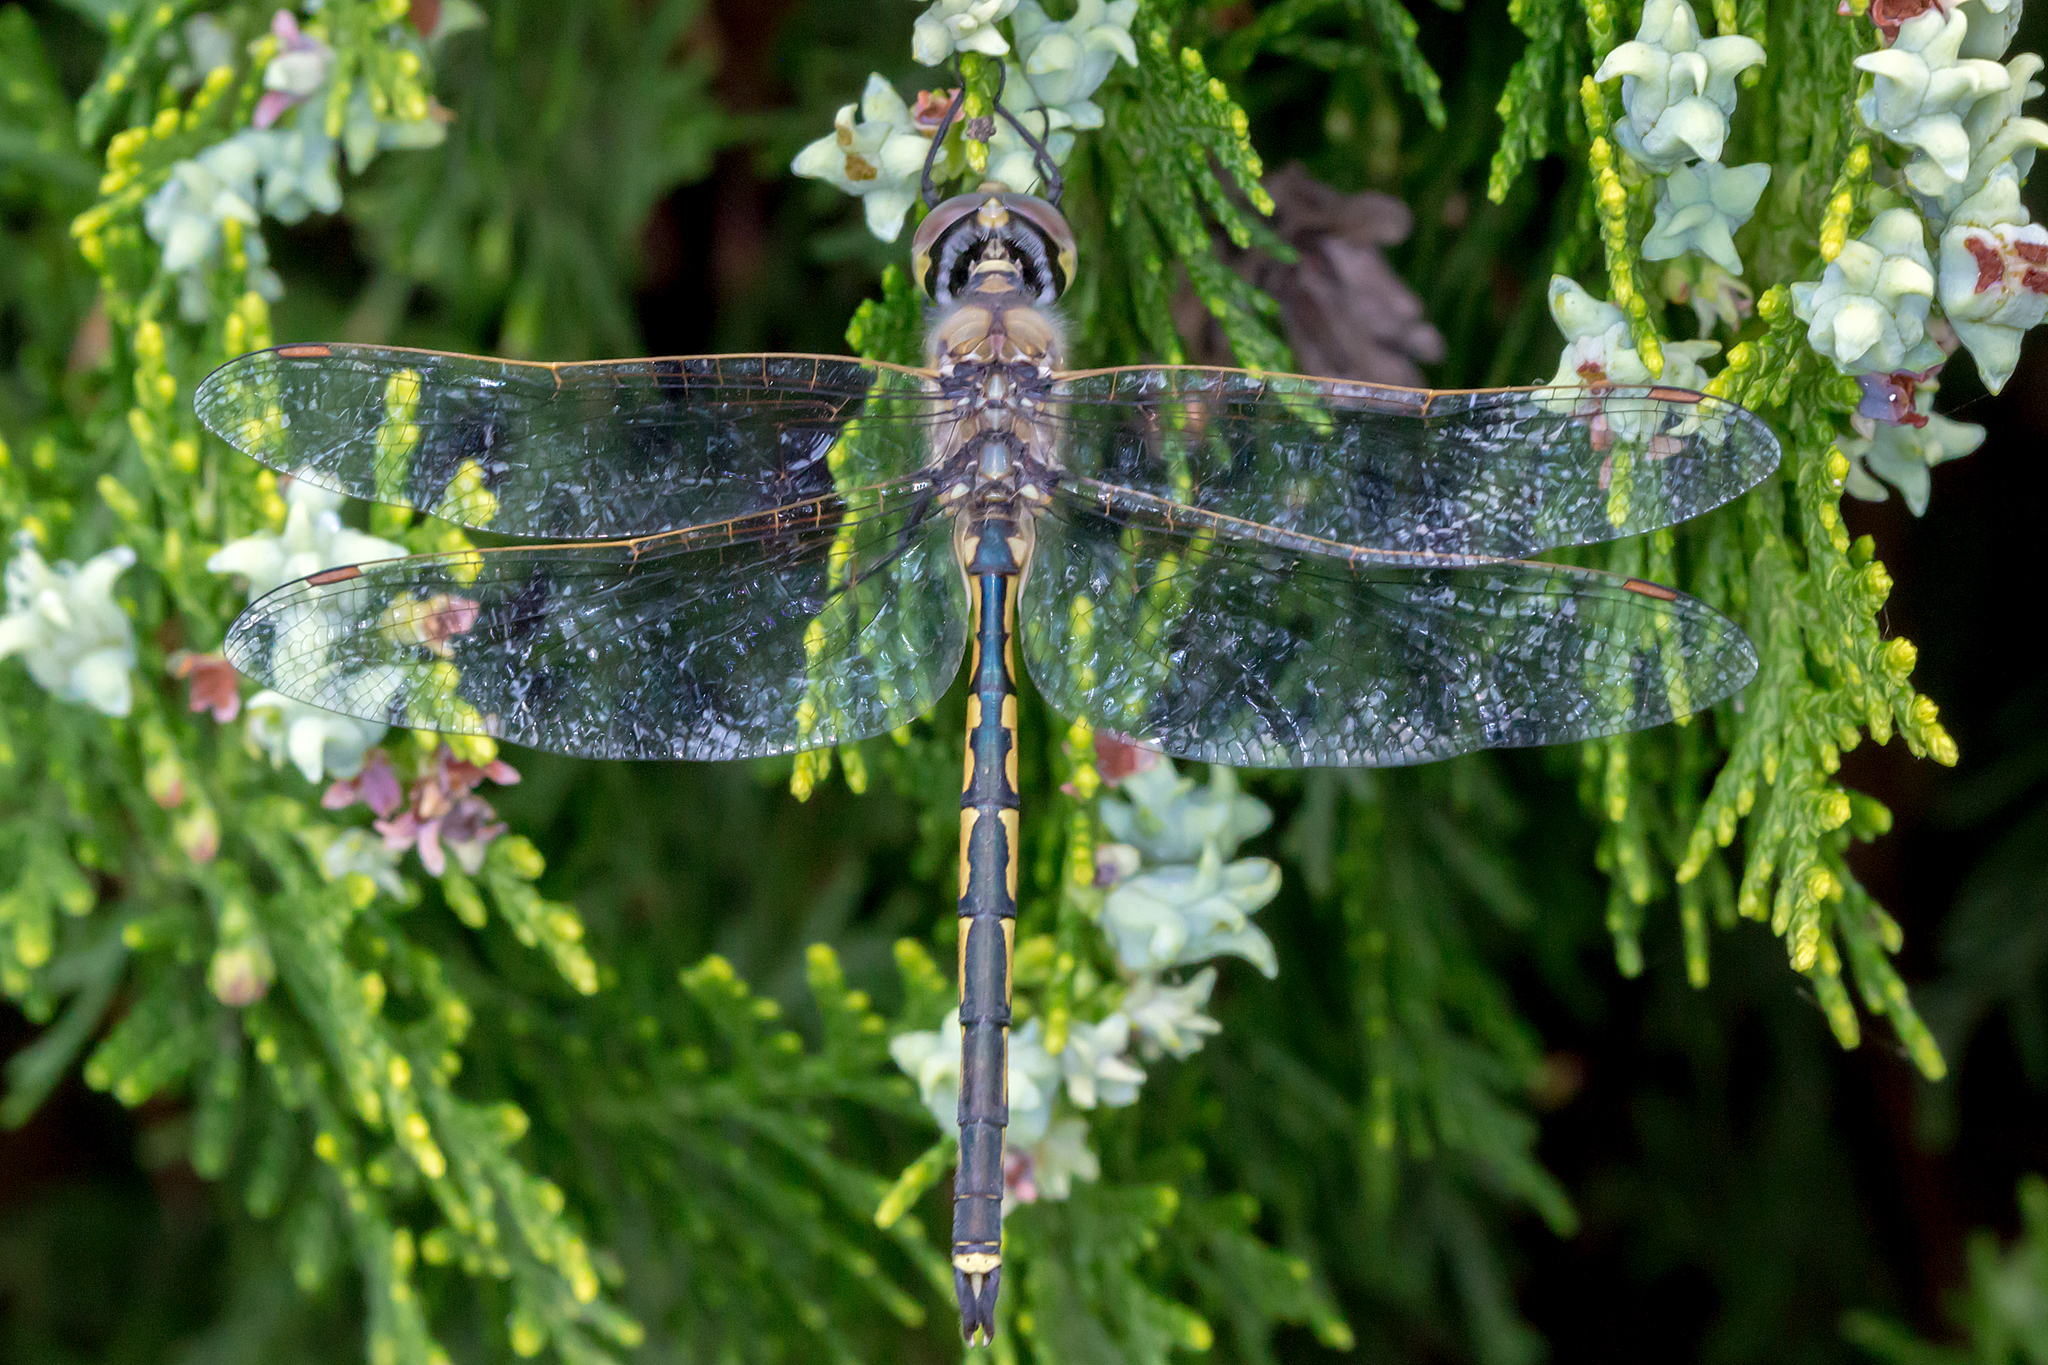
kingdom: Animalia
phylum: Arthropoda
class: Insecta
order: Odonata
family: Corduliidae
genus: Hemicordulia
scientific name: Hemicordulia tau
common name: Tau emerald
